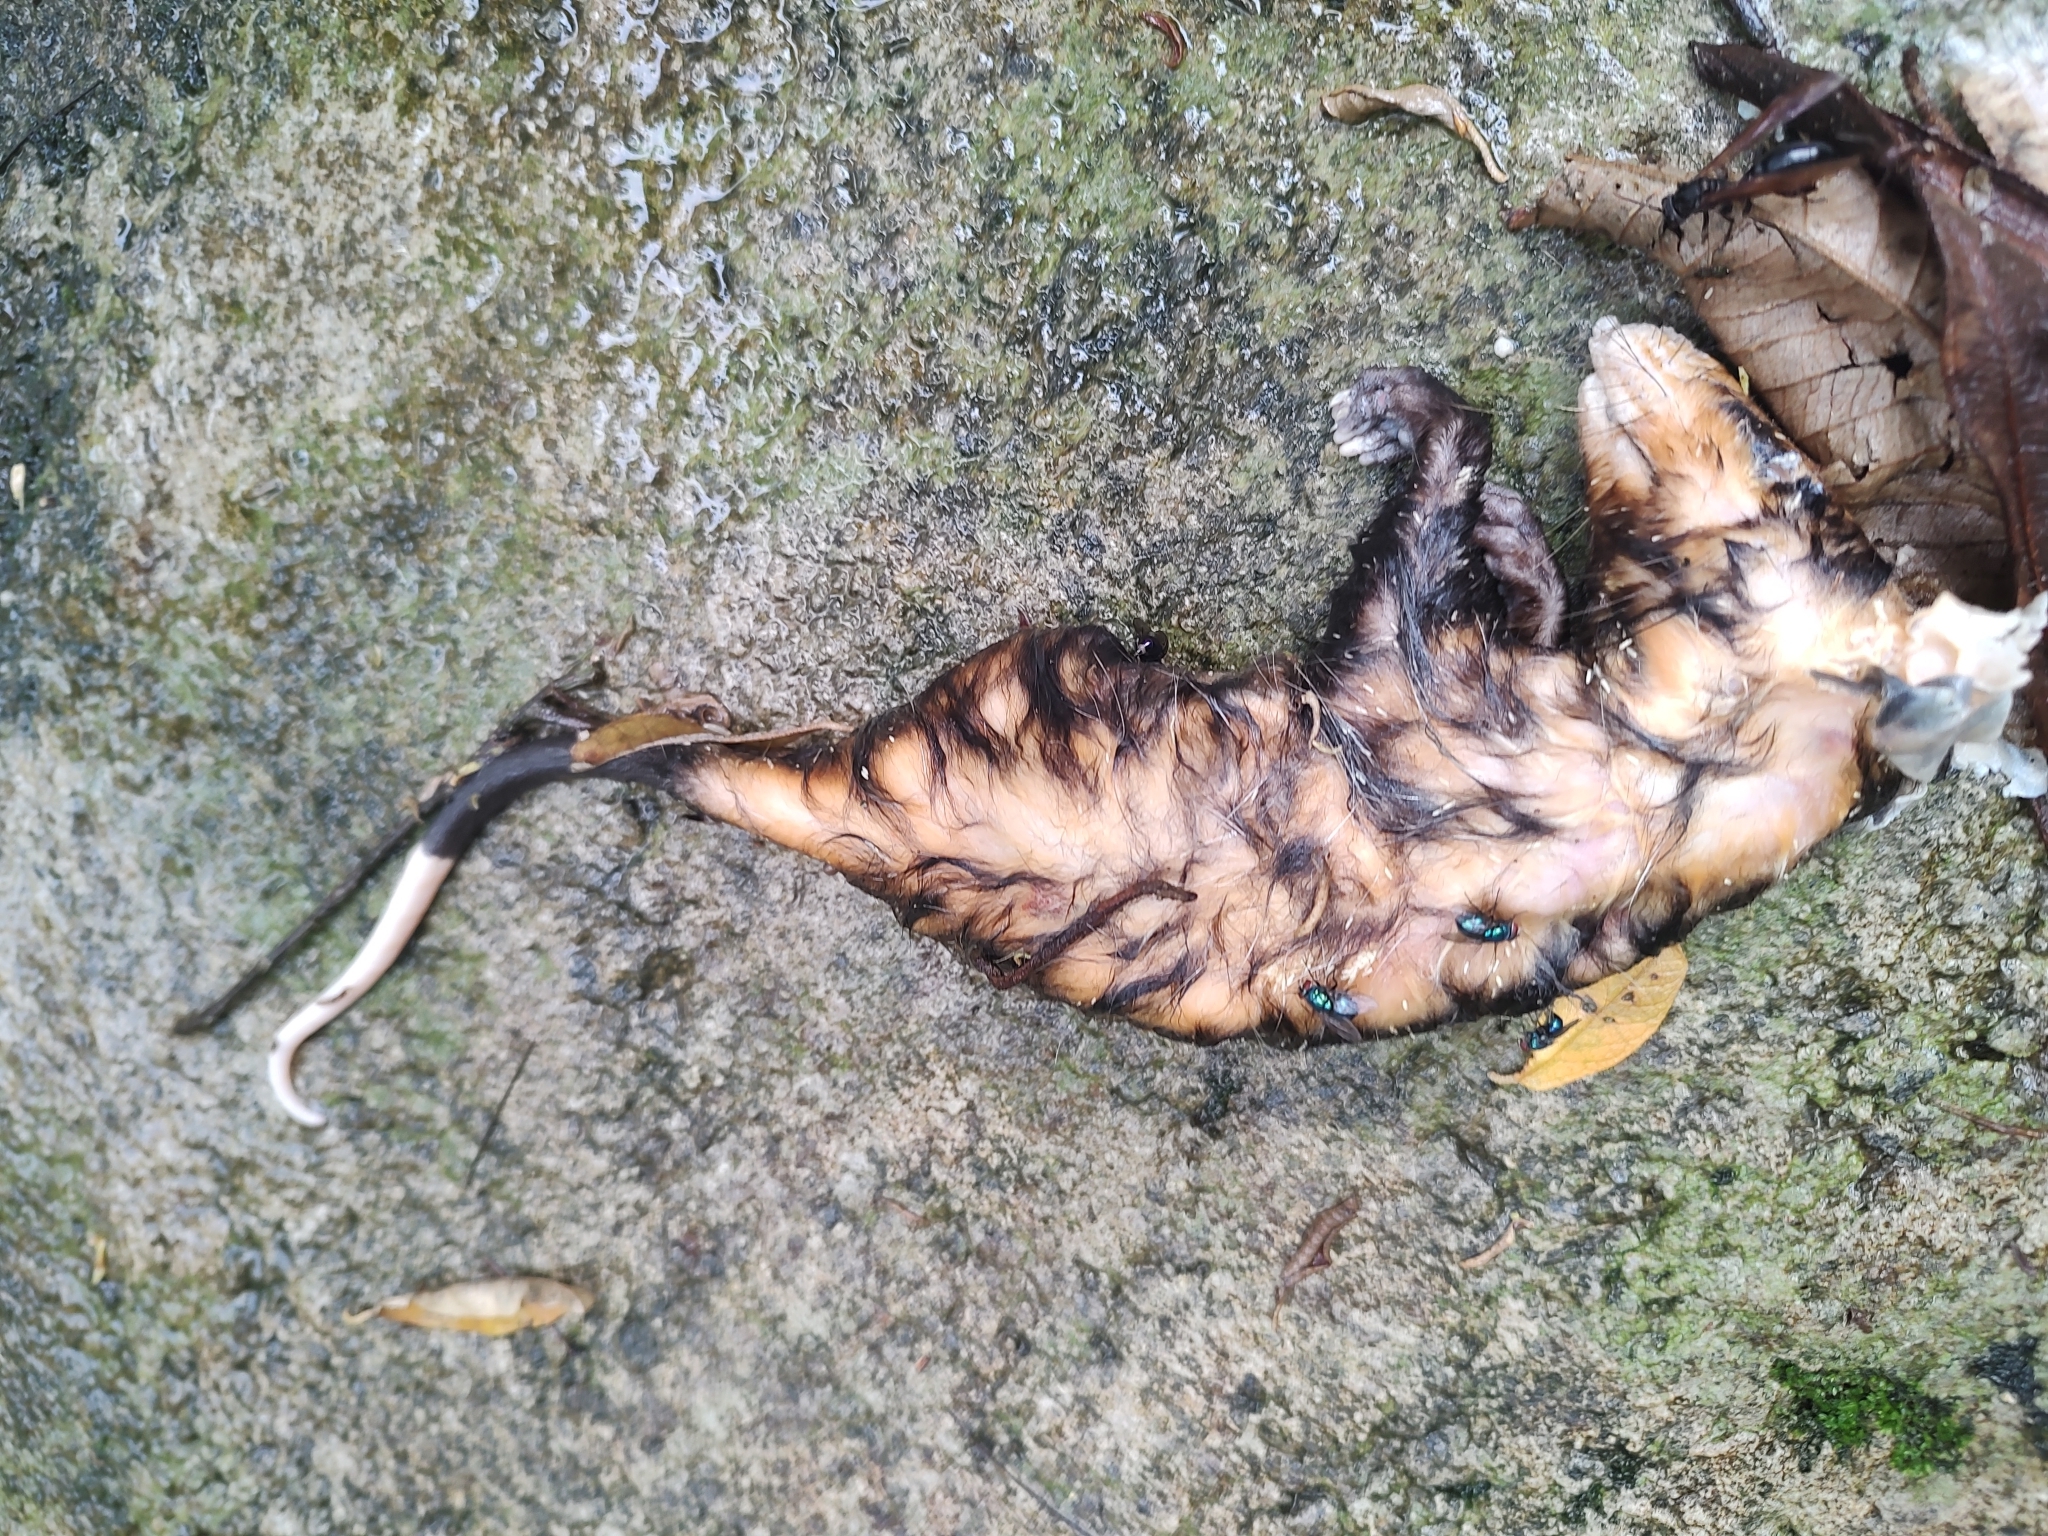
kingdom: Animalia
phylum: Chordata
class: Mammalia
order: Didelphimorphia
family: Didelphidae
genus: Didelphis
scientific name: Didelphis albiventris
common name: White-eared opossum
